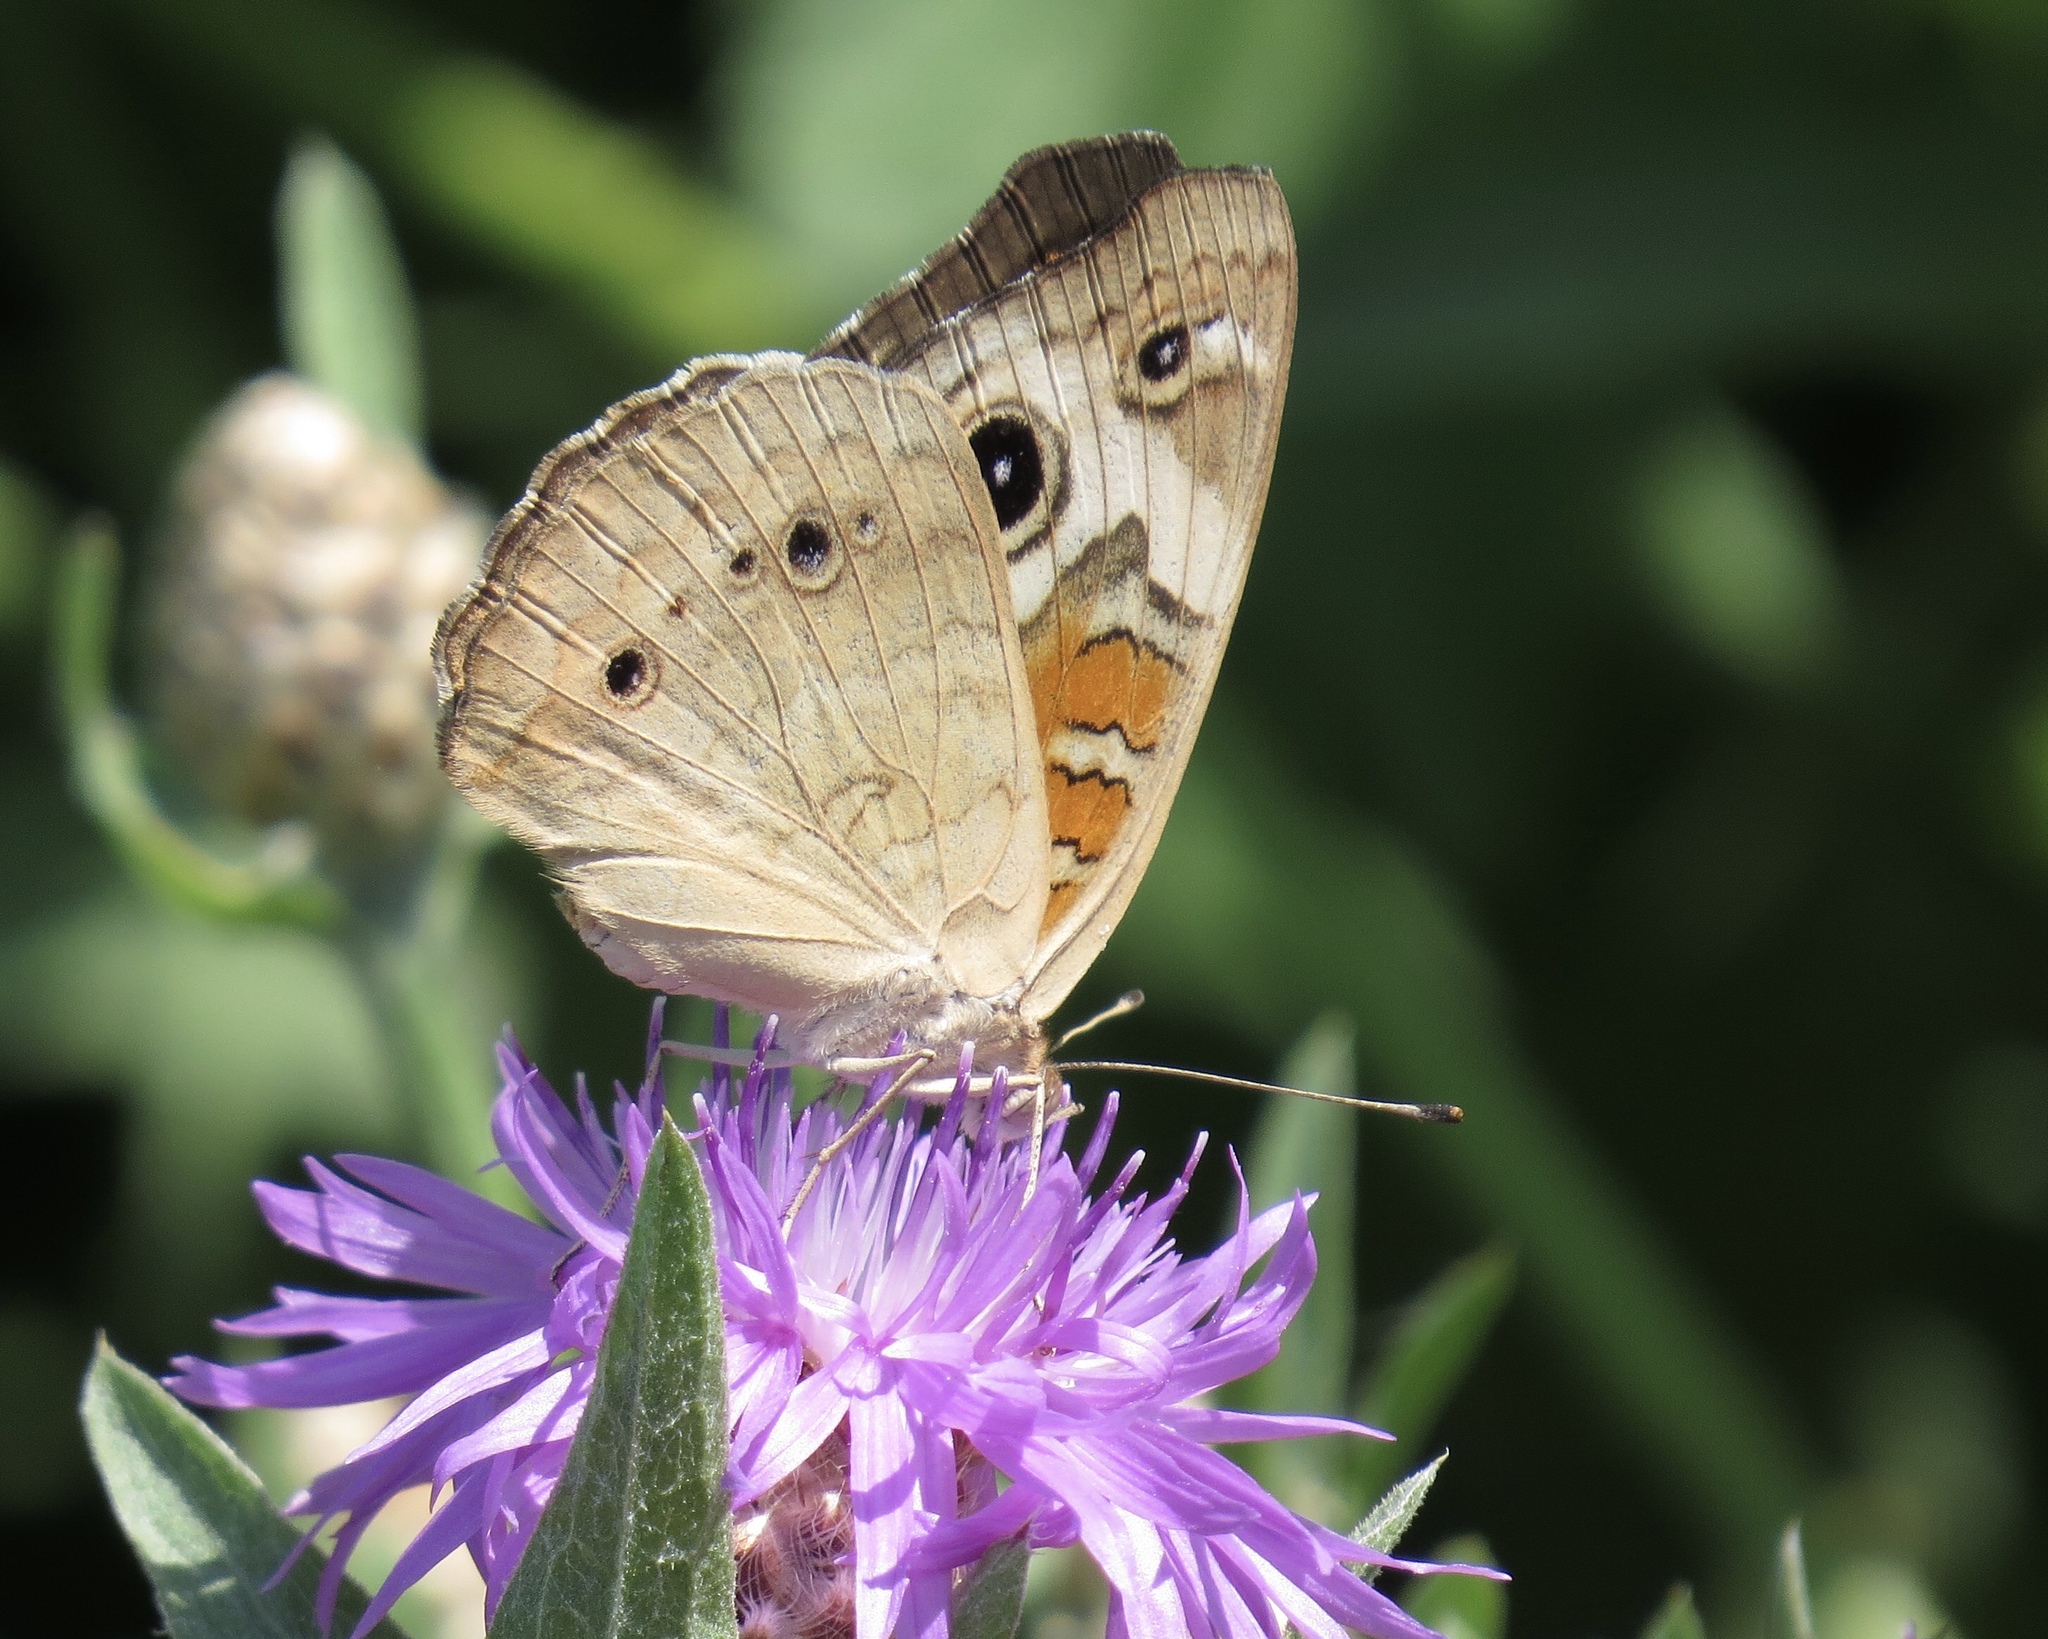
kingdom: Animalia
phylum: Arthropoda
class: Insecta
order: Lepidoptera
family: Nymphalidae
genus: Junonia
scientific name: Junonia coenia
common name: Common buckeye
